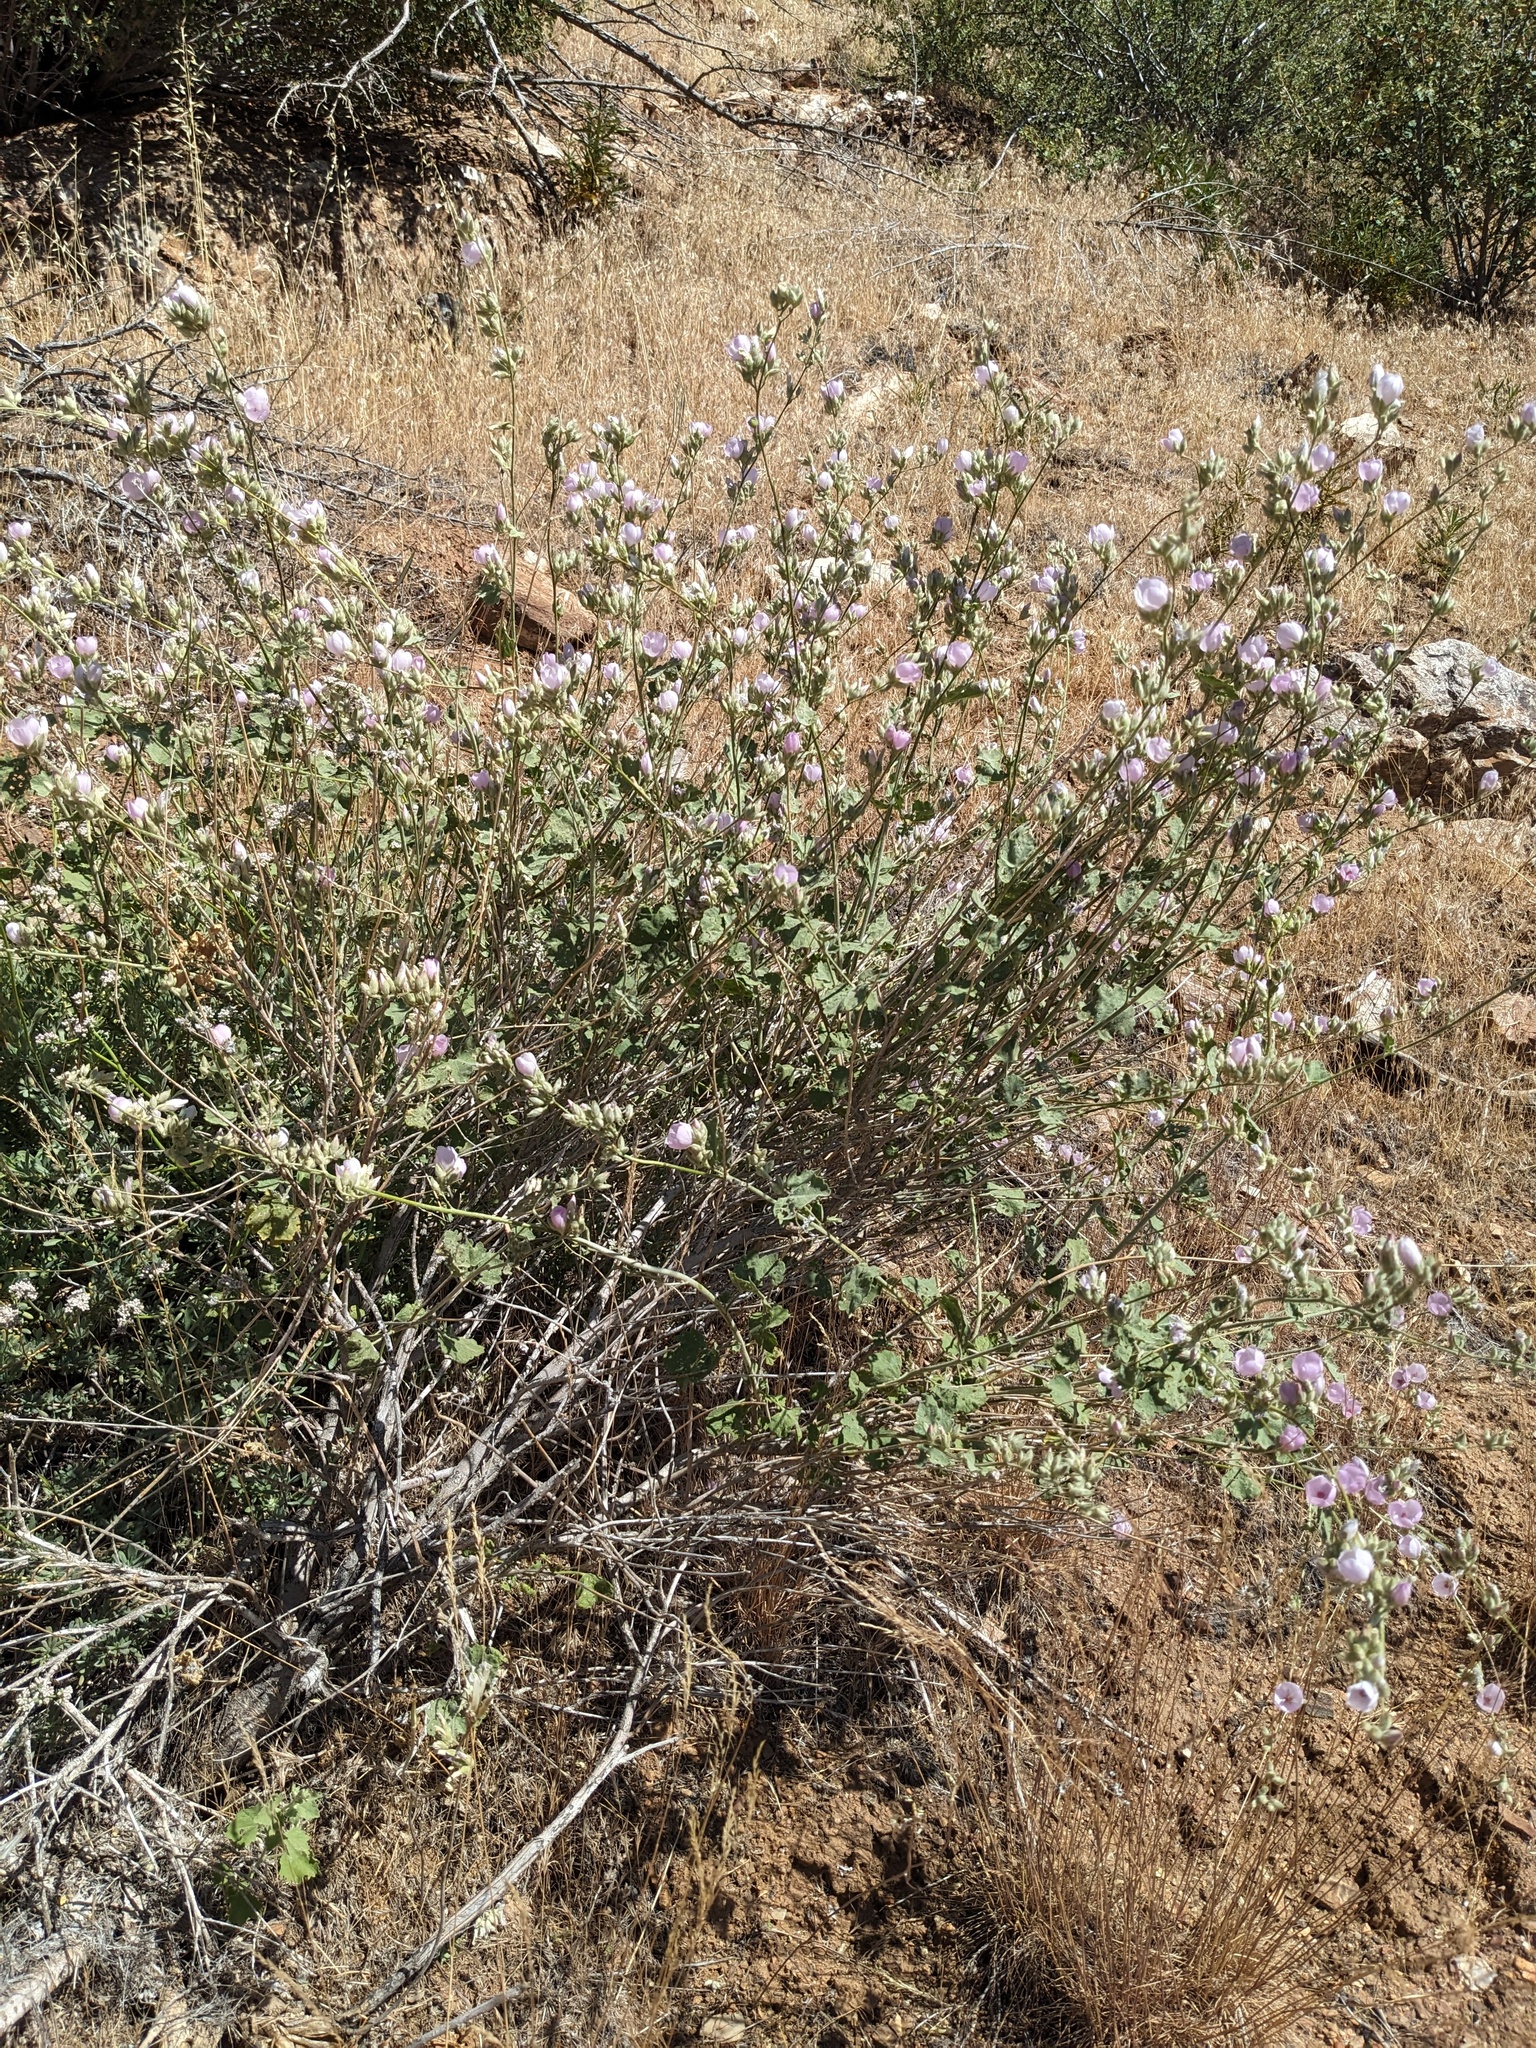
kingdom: Plantae
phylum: Tracheophyta
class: Magnoliopsida
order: Malvales
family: Malvaceae
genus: Malacothamnus
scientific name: Malacothamnus fremontii
